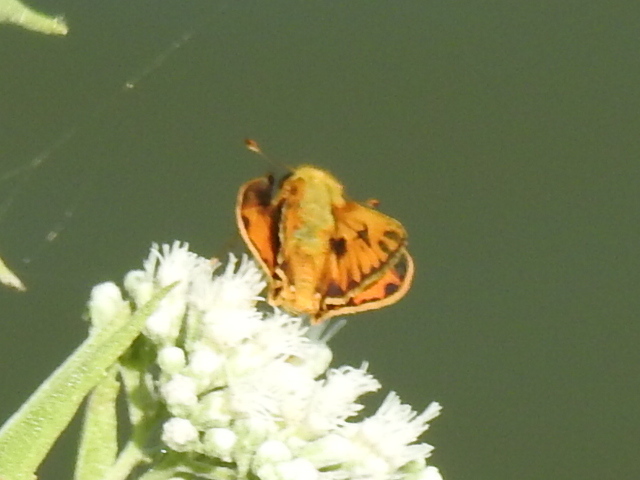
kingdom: Animalia
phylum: Arthropoda
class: Insecta
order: Lepidoptera
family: Hesperiidae
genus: Hylephila
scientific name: Hylephila phyleus
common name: Fiery skipper
